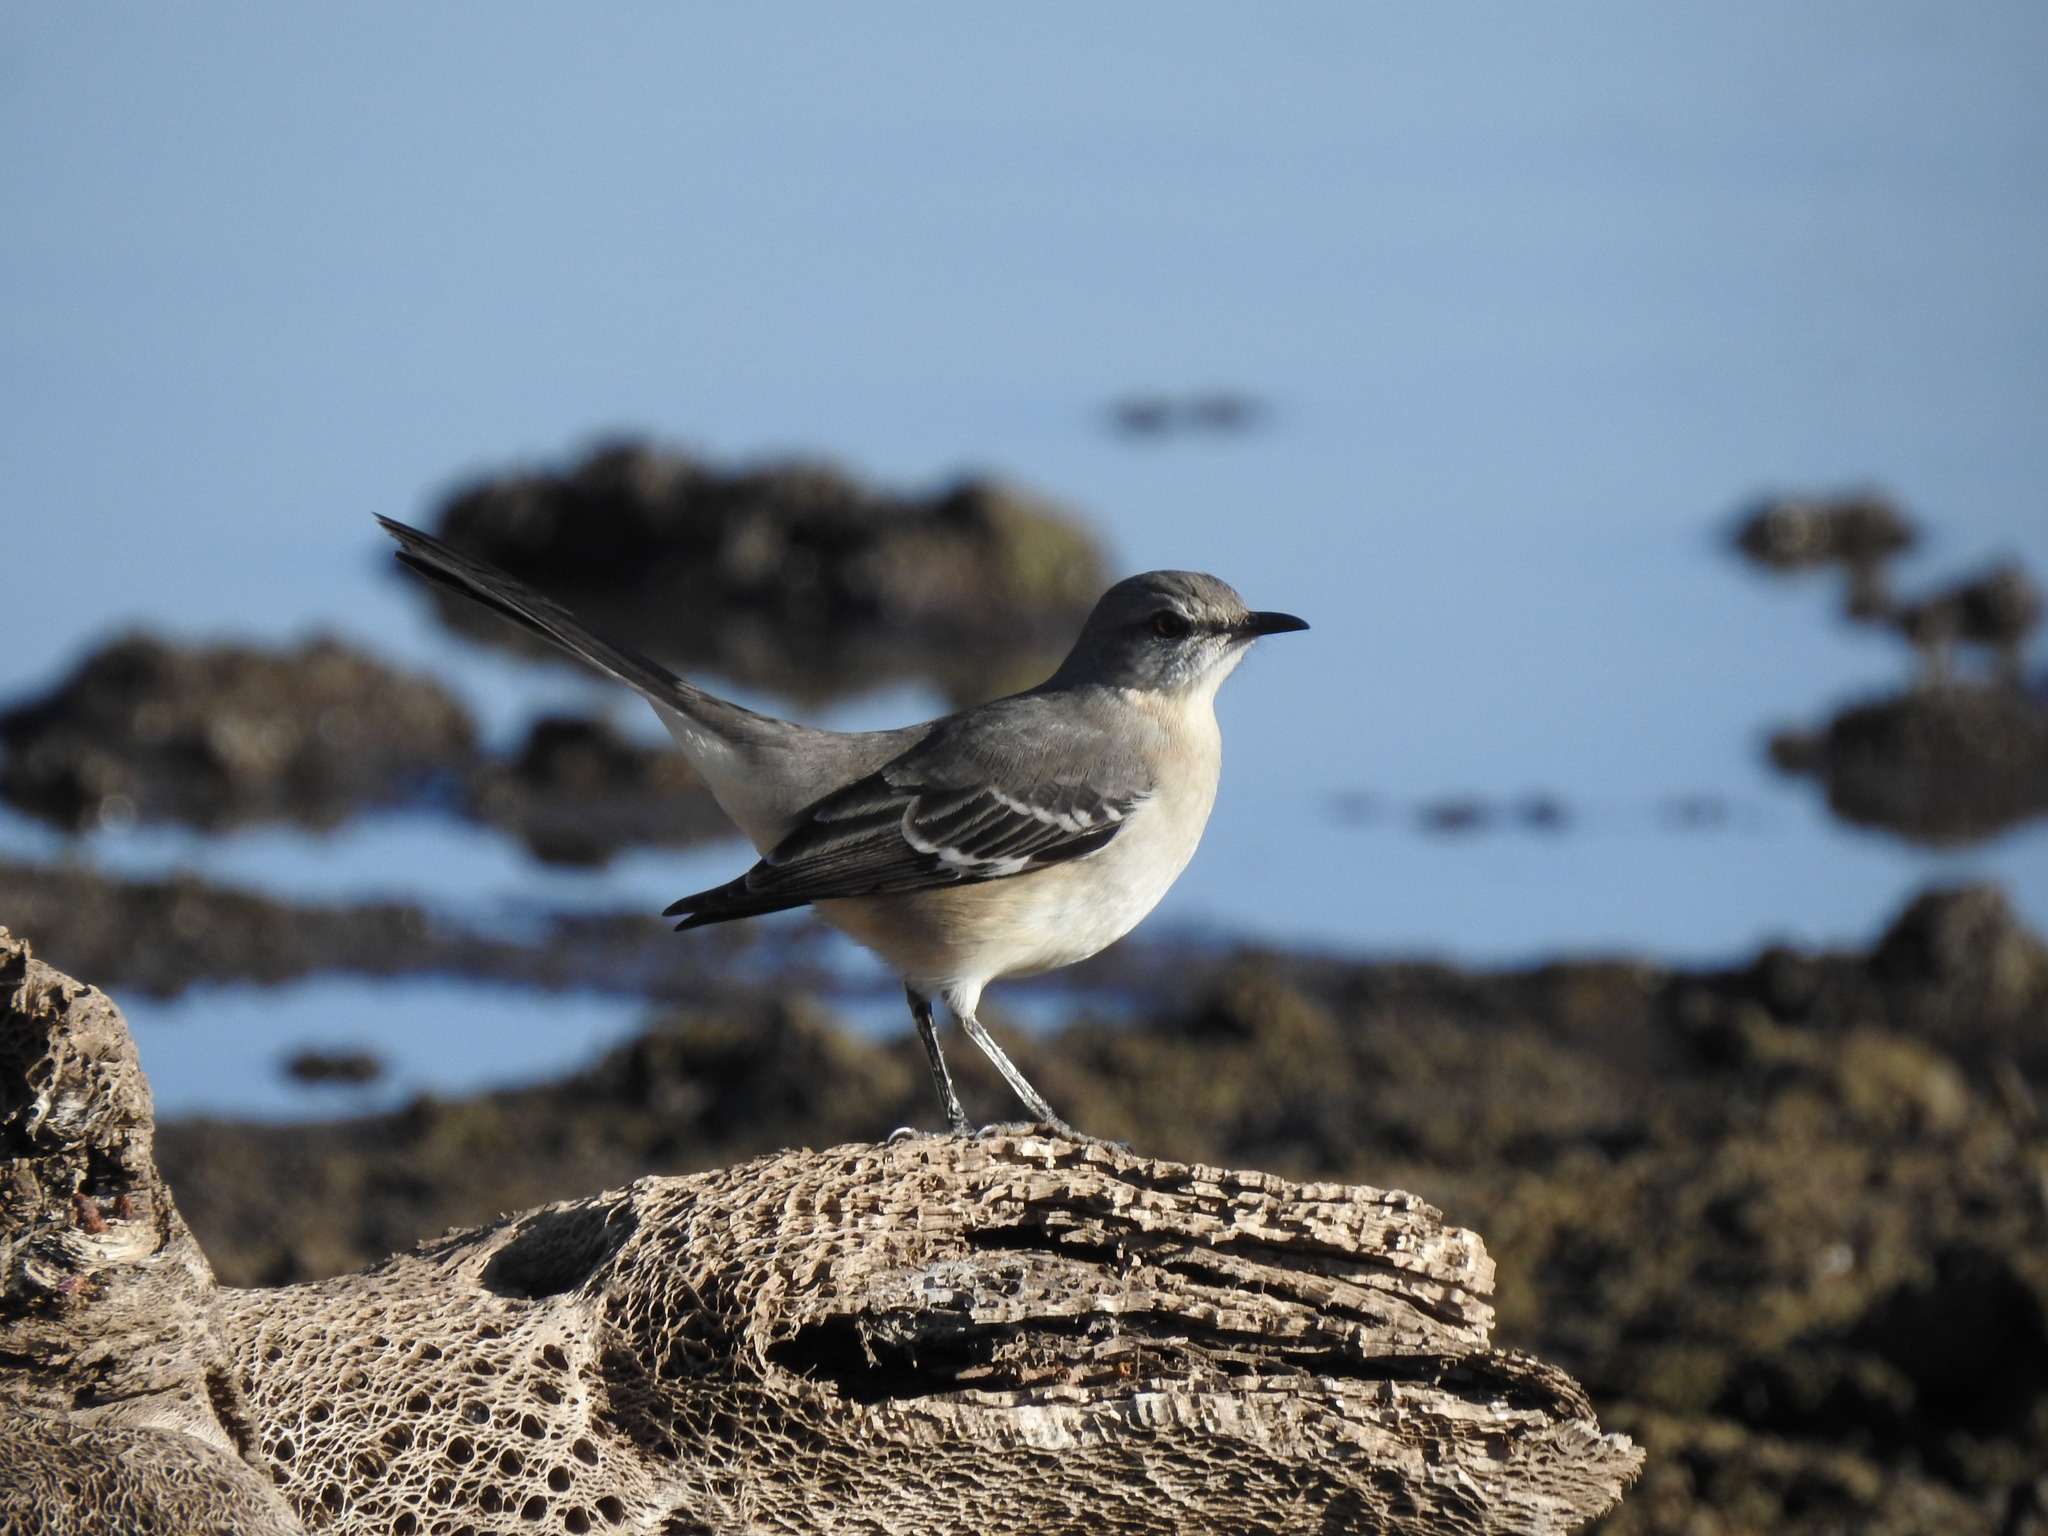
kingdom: Animalia
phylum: Chordata
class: Aves
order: Passeriformes
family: Mimidae
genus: Mimus
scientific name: Mimus polyglottos
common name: Northern mockingbird
